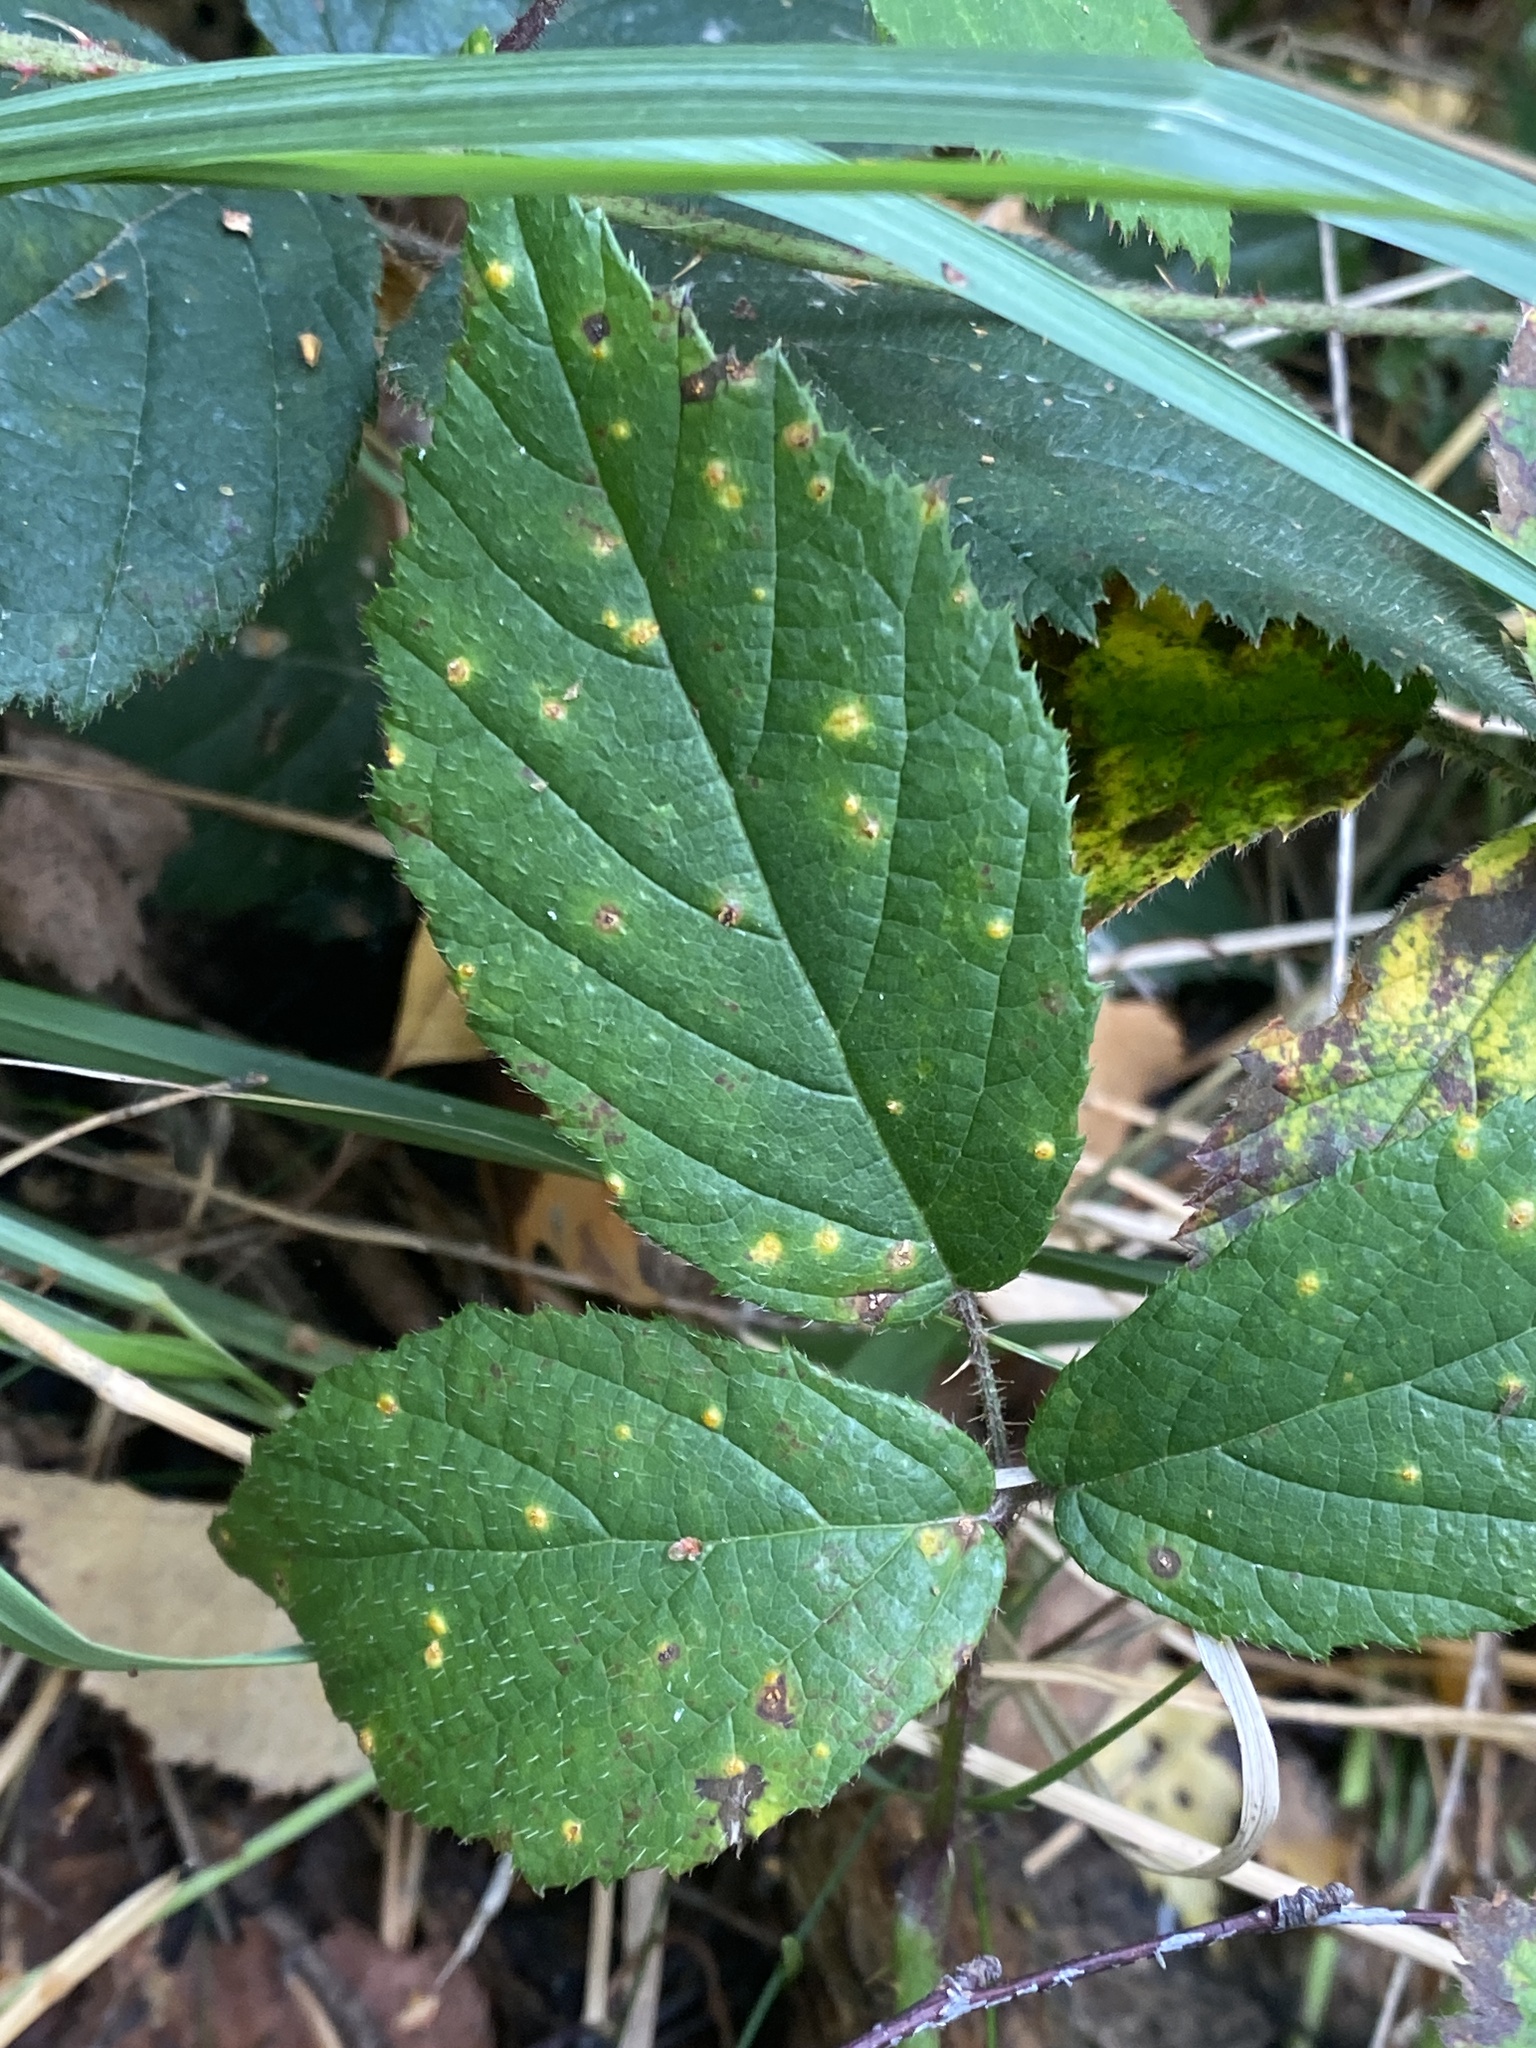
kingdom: Fungi
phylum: Basidiomycota
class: Pucciniomycetes
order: Pucciniales
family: Phragmidiaceae
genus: Kuehneola
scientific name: Kuehneola uredinis
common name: Bramble stem rust
